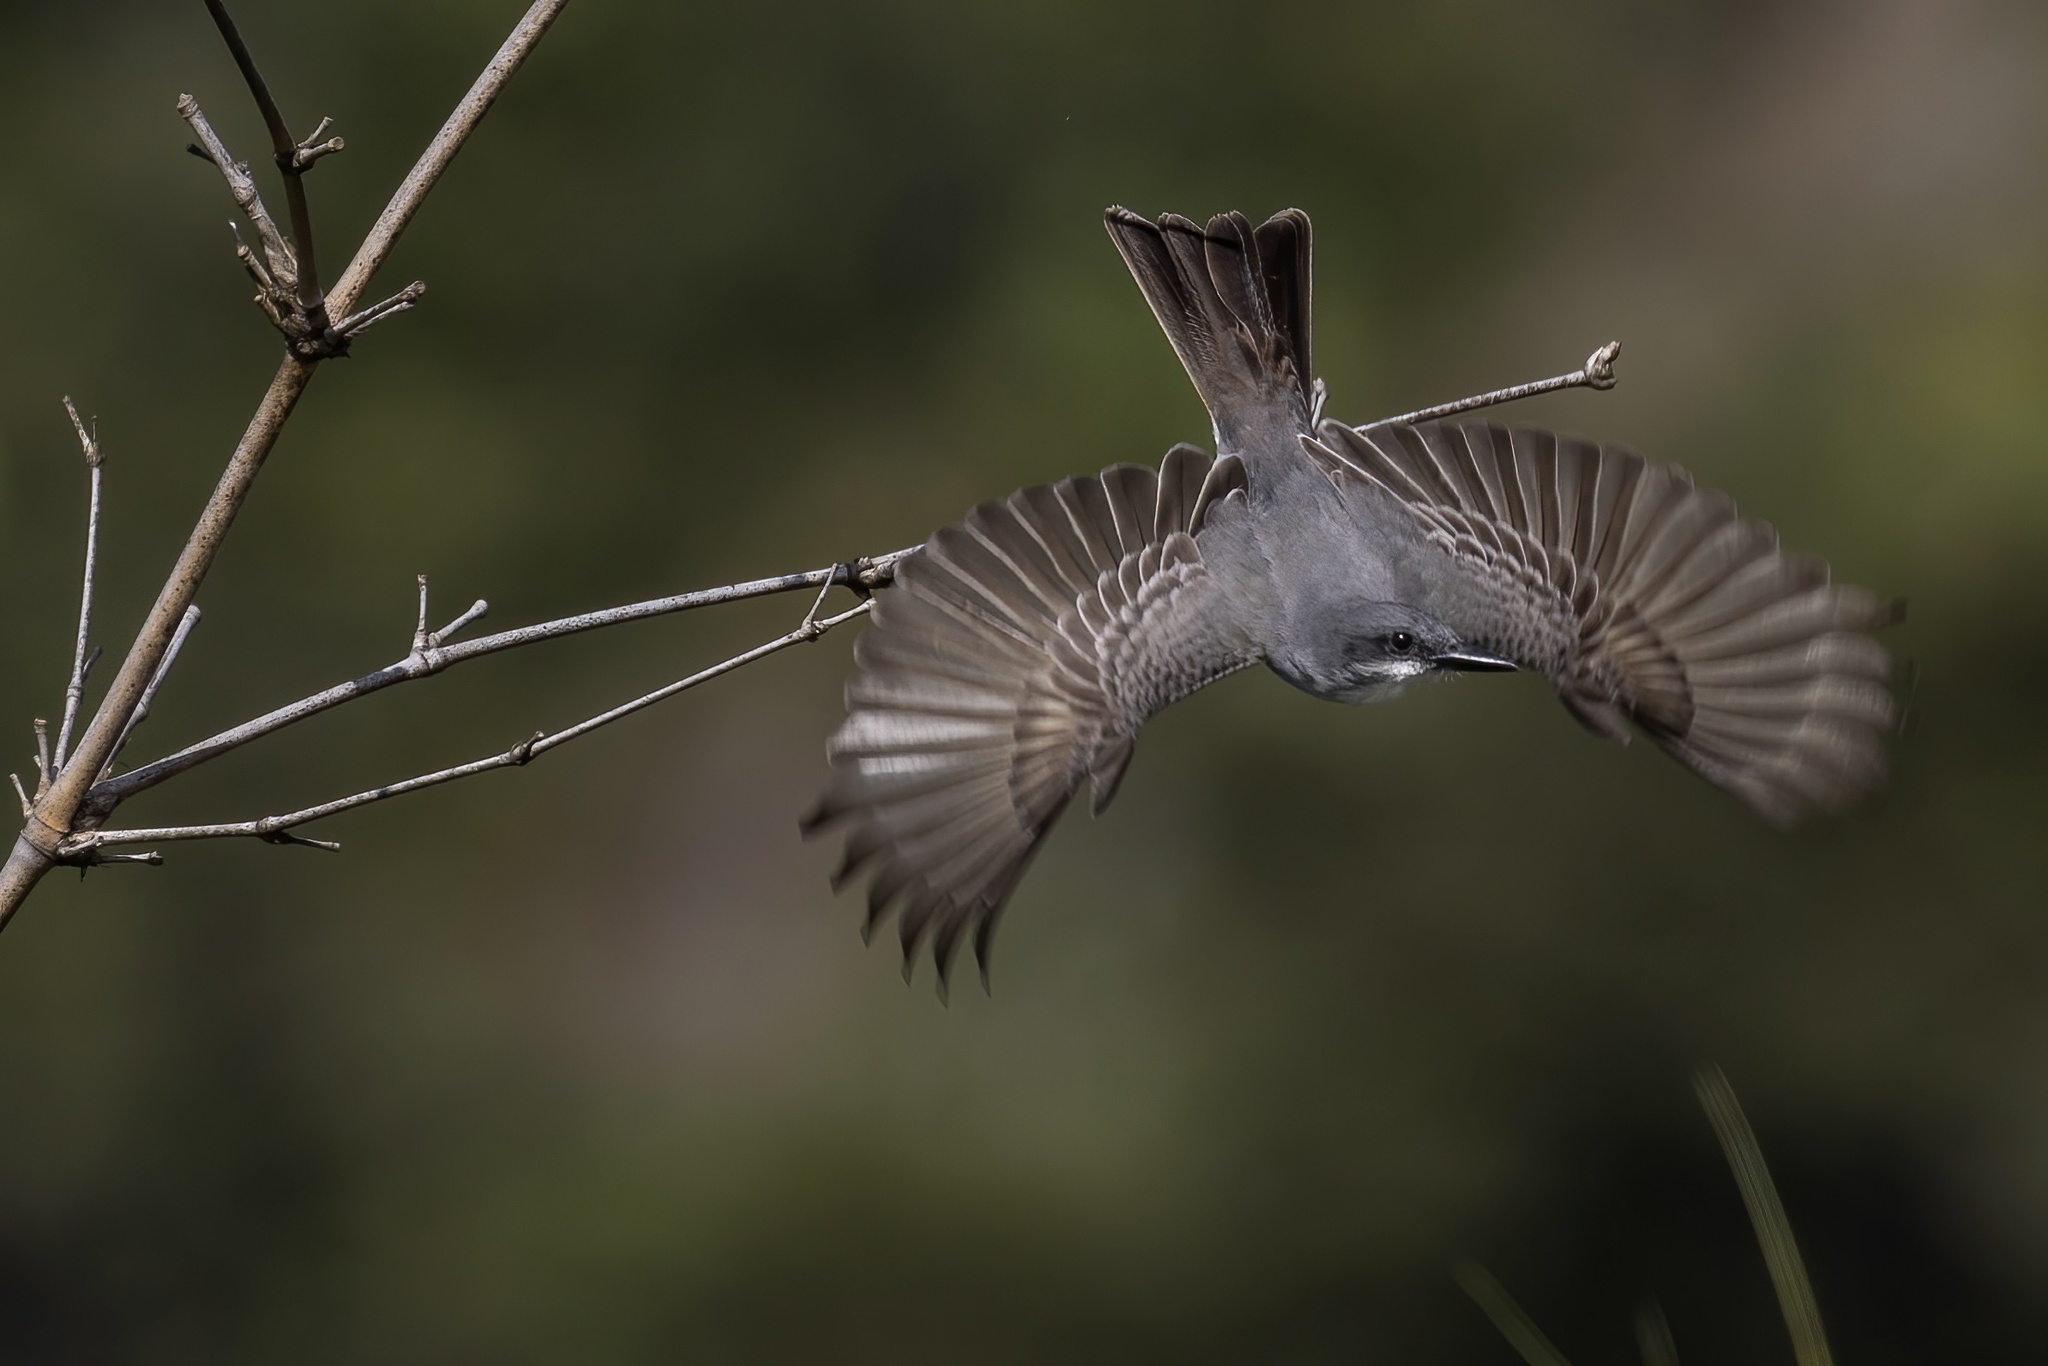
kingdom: Animalia
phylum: Chordata
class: Aves
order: Passeriformes
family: Tyrannidae
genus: Tyrannus
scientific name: Tyrannus dominicensis
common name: Gray kingbird
